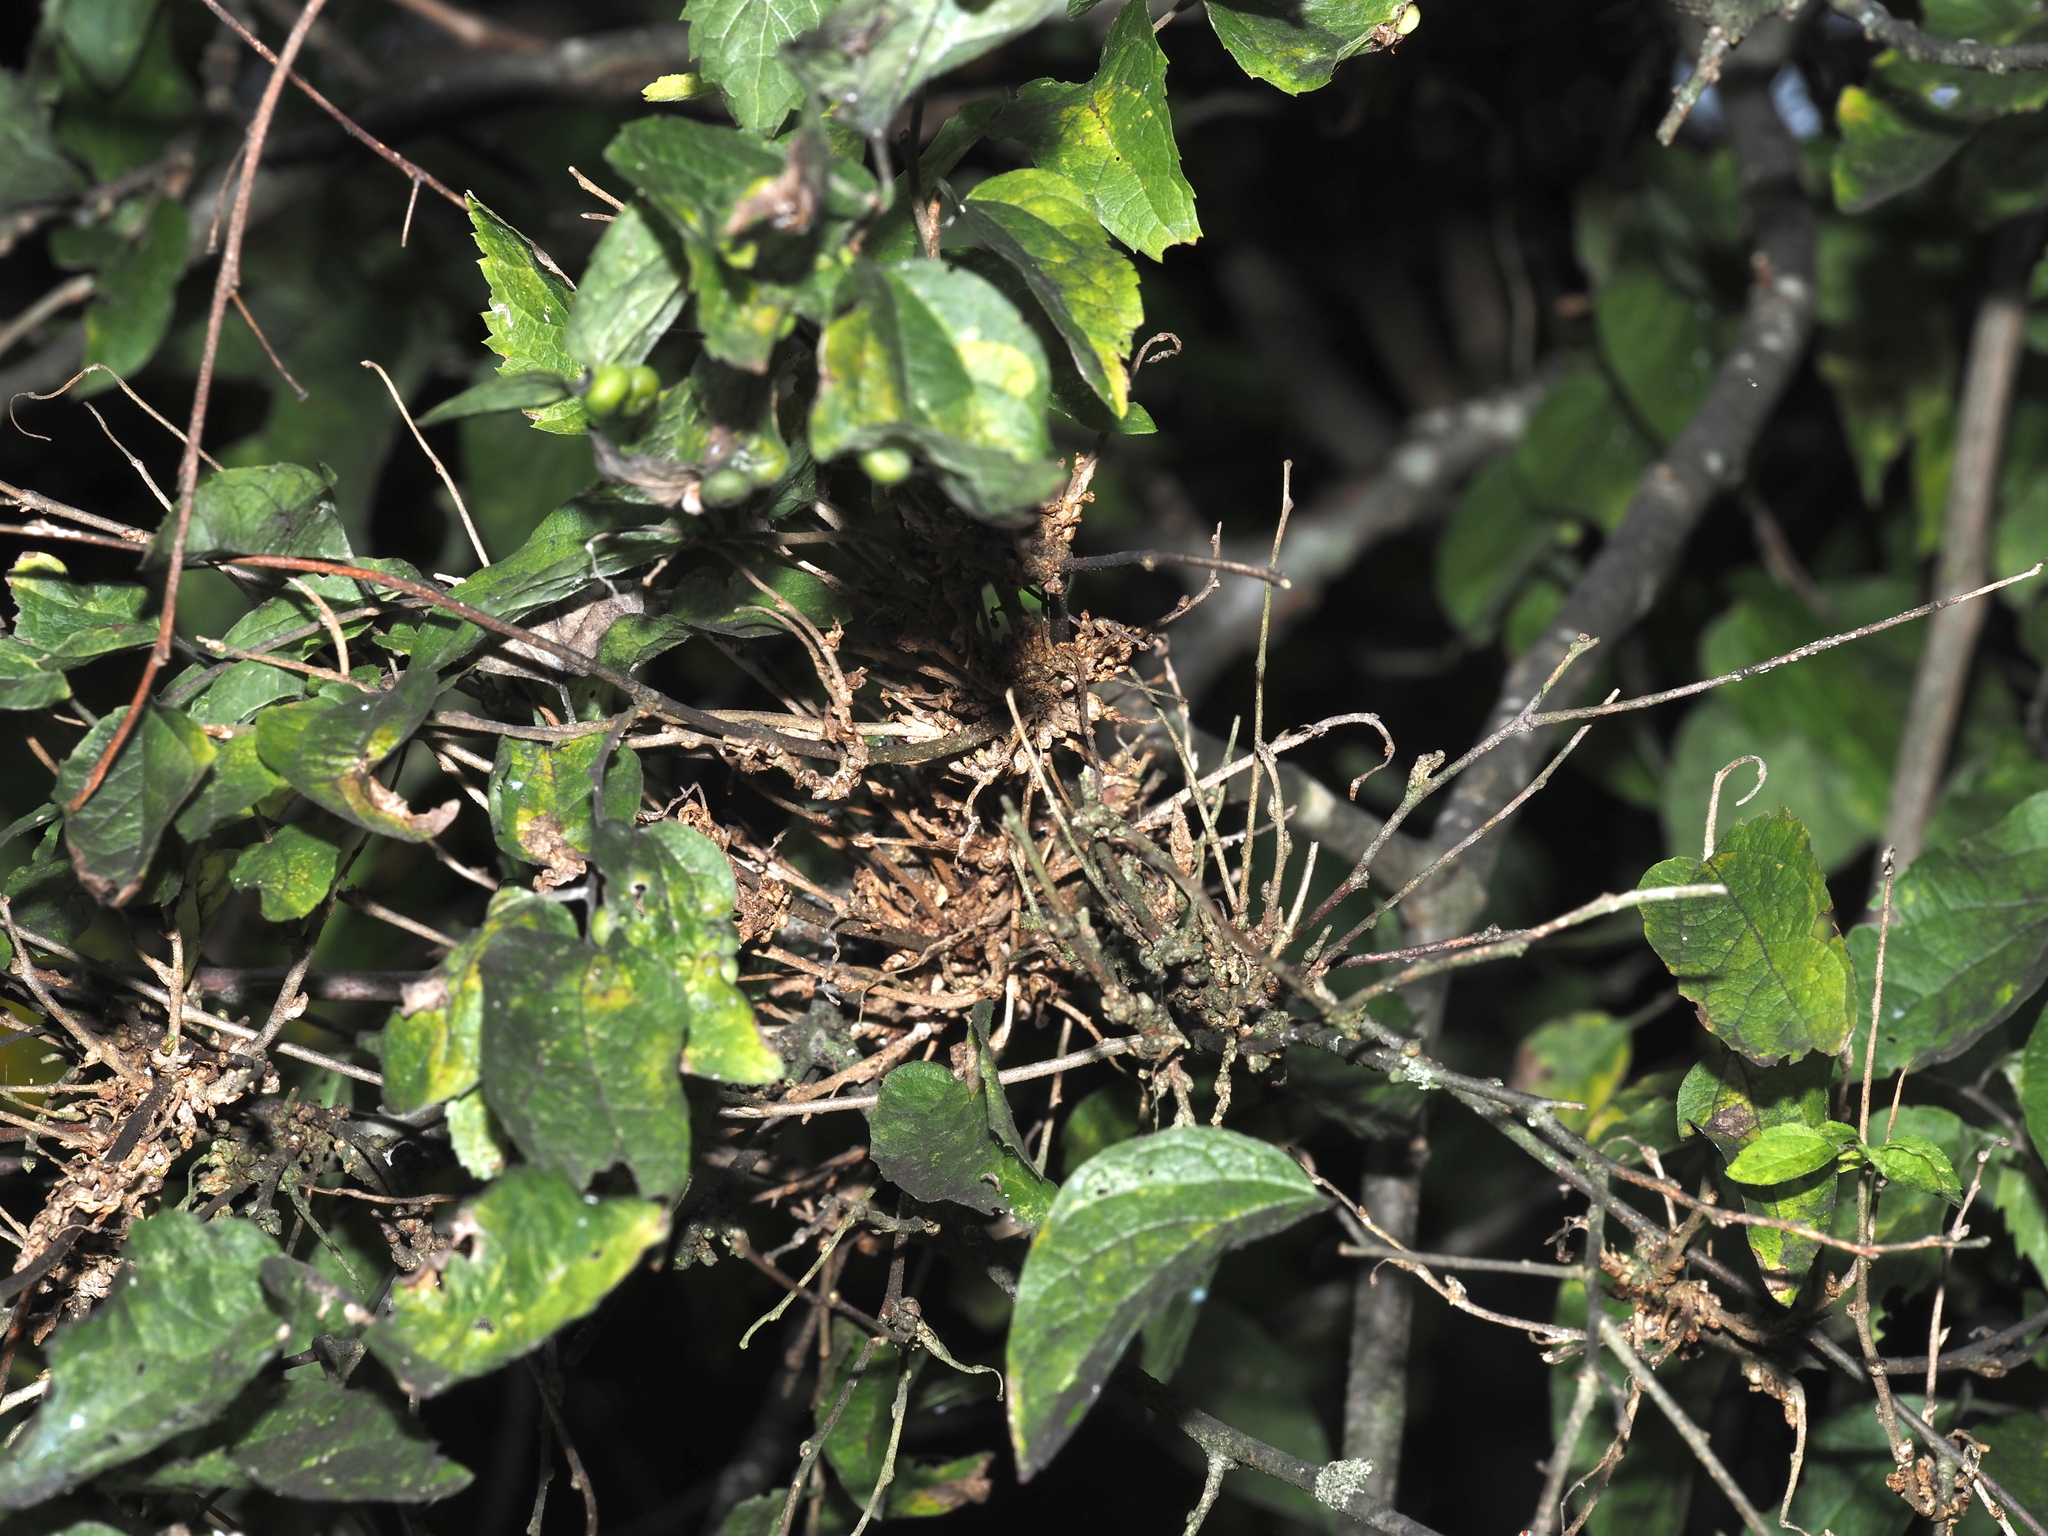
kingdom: Animalia
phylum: Arthropoda
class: Arachnida
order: Trombidiformes
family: Eriophyidae
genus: Aceria
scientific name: Aceria
